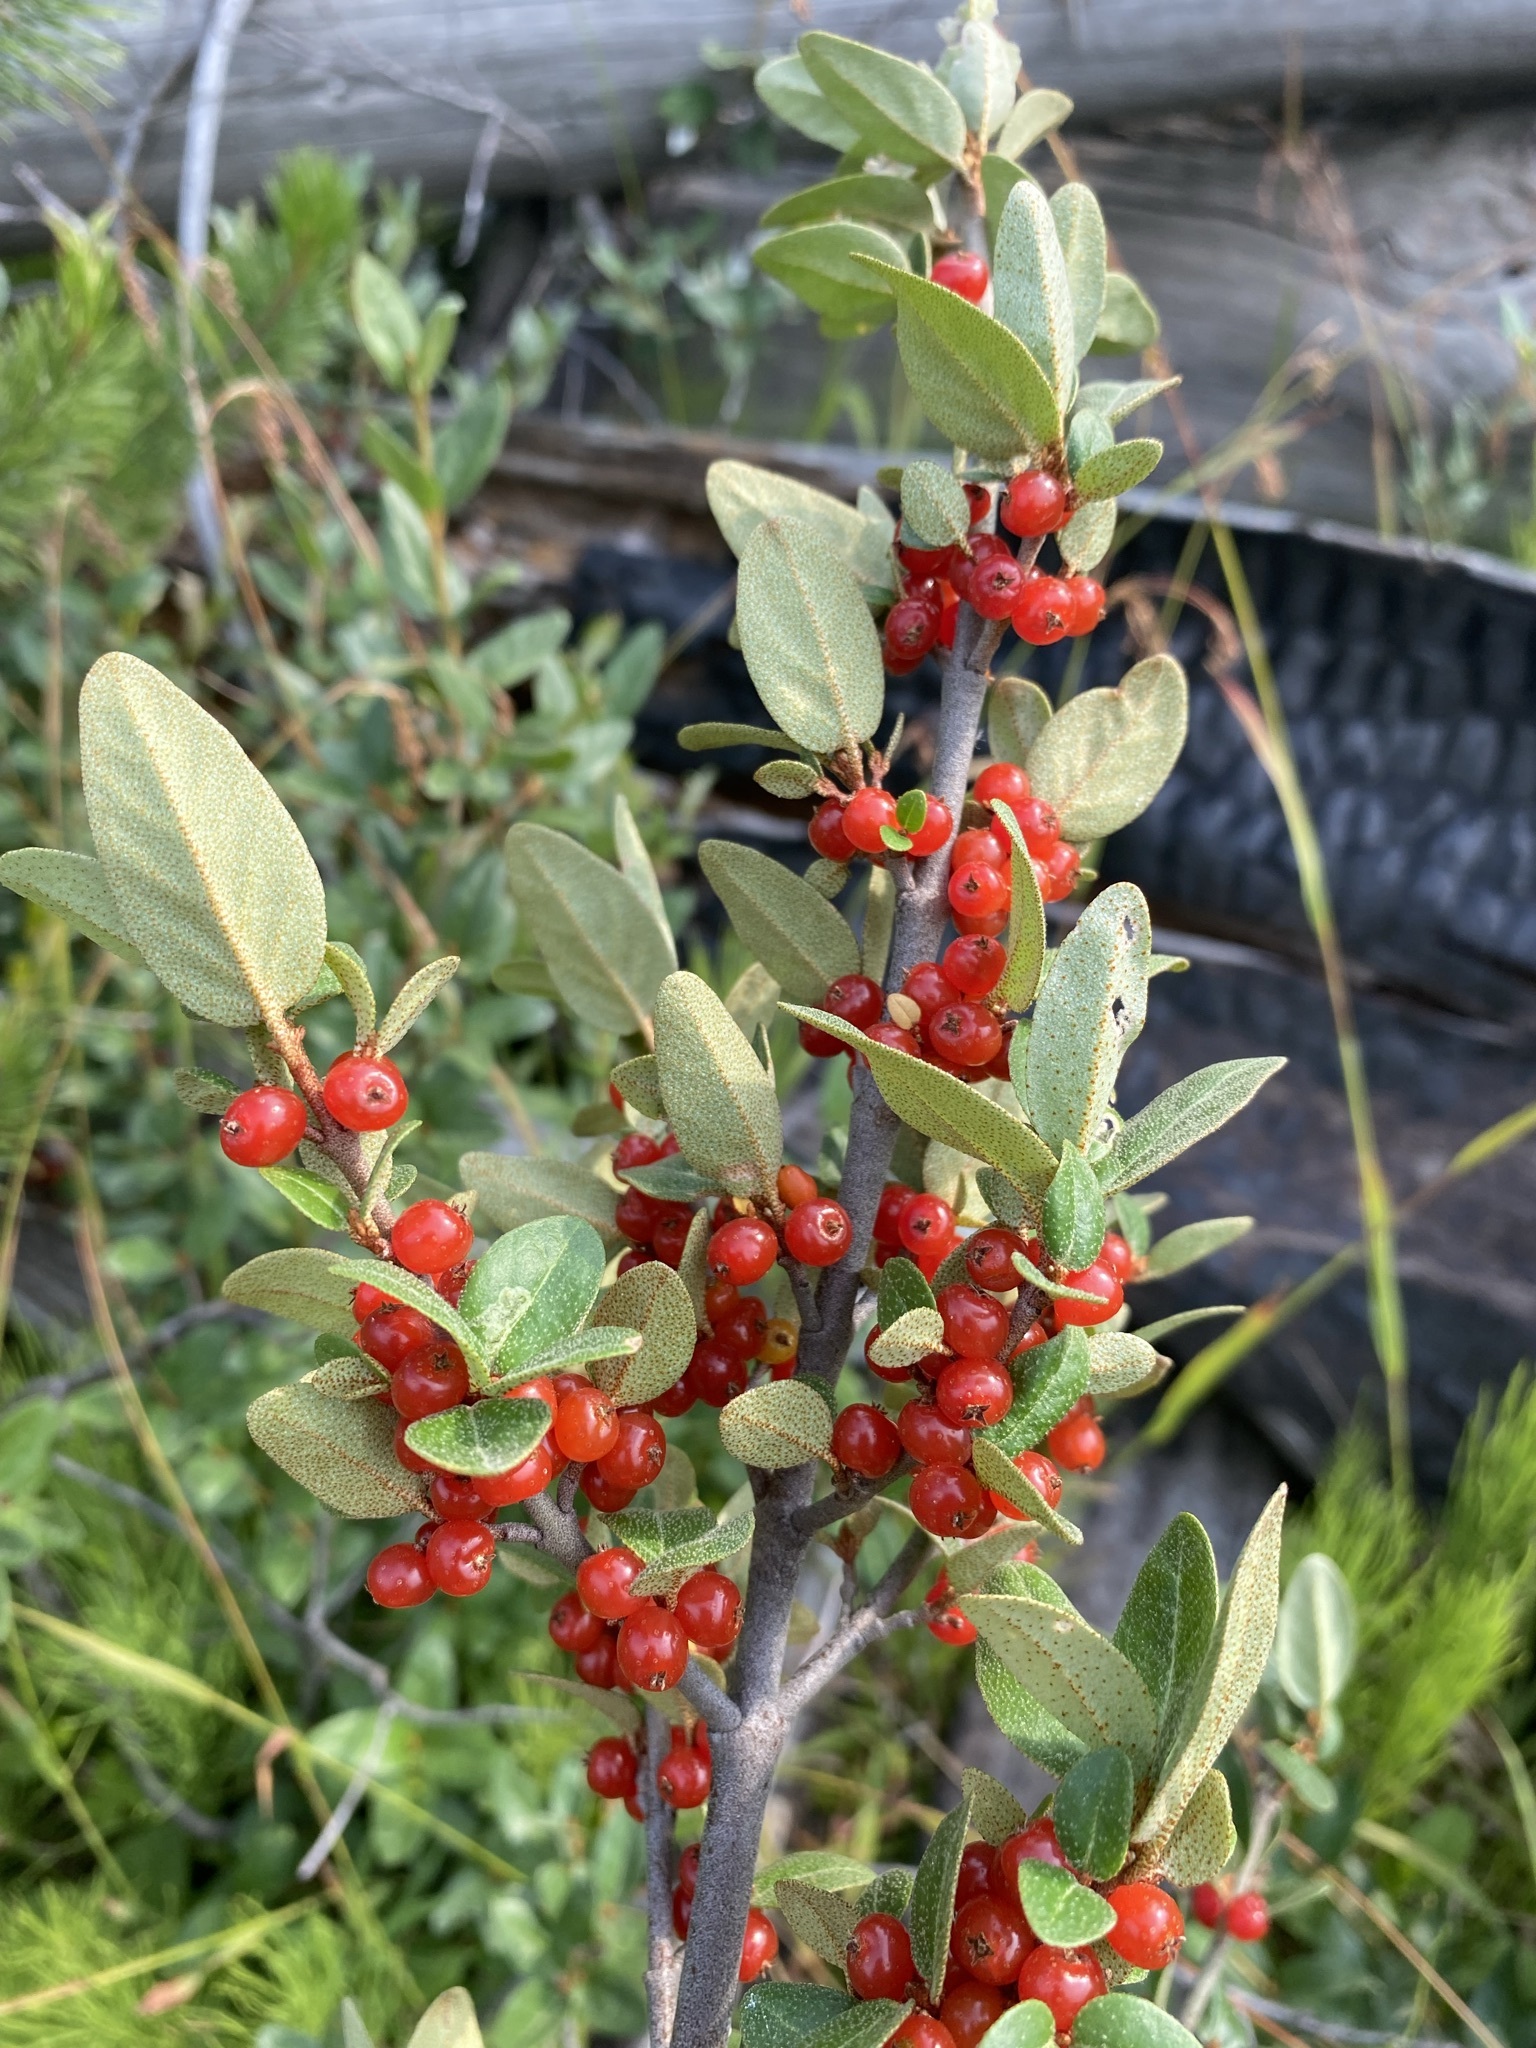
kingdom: Plantae
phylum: Tracheophyta
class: Magnoliopsida
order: Rosales
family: Elaeagnaceae
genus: Shepherdia
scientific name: Shepherdia canadensis
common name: Soapberry
